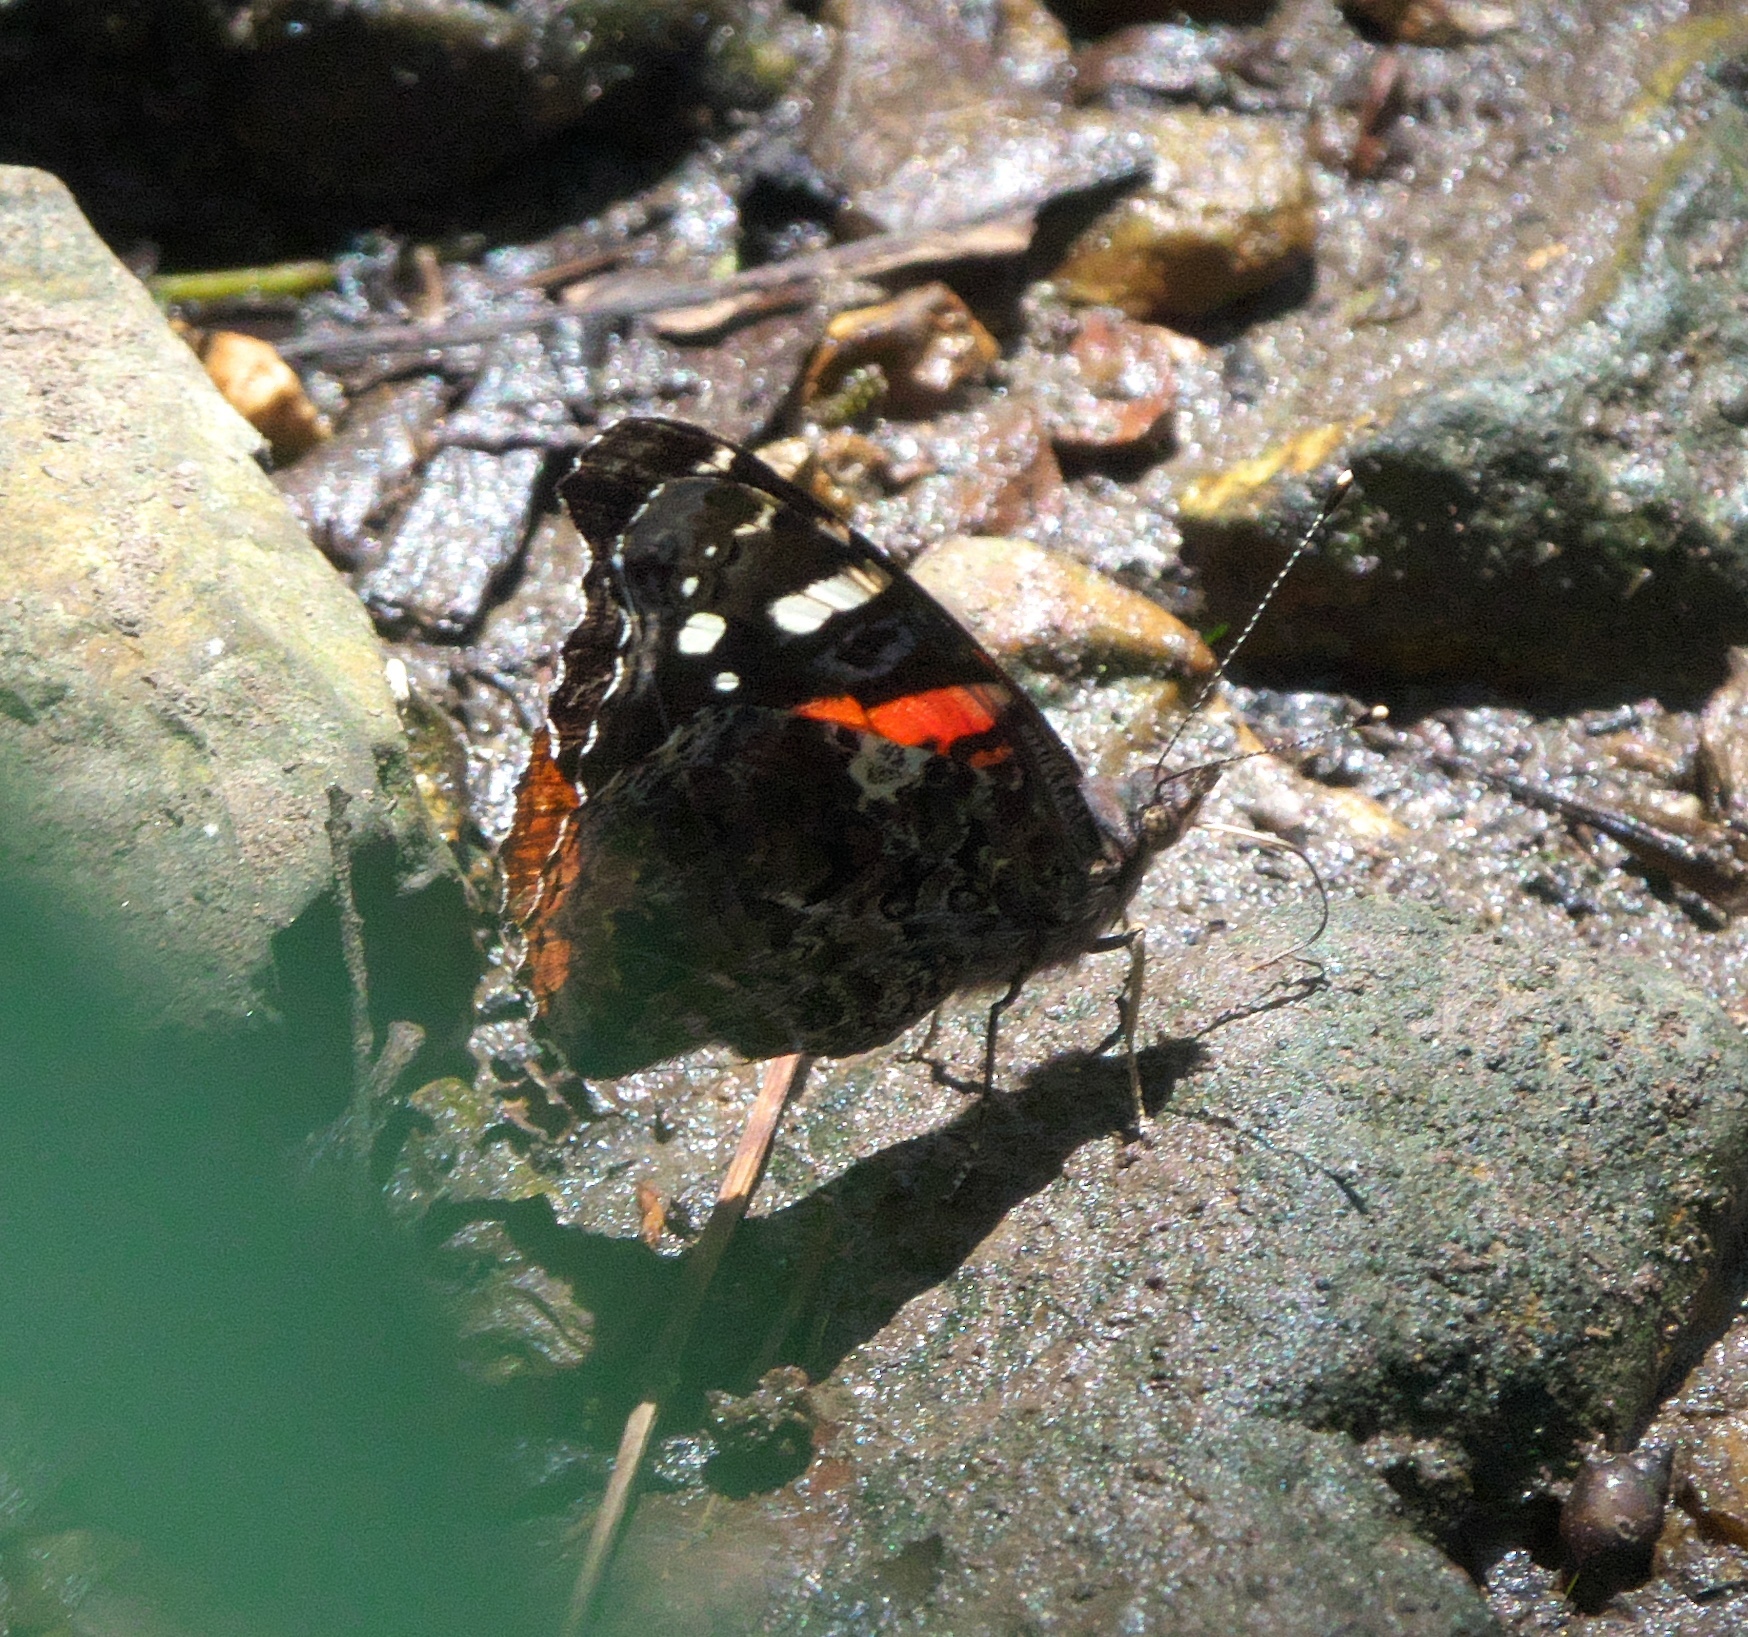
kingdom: Animalia
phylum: Arthropoda
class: Insecta
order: Lepidoptera
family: Nymphalidae
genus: Vanessa
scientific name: Vanessa atalanta
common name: Red admiral
